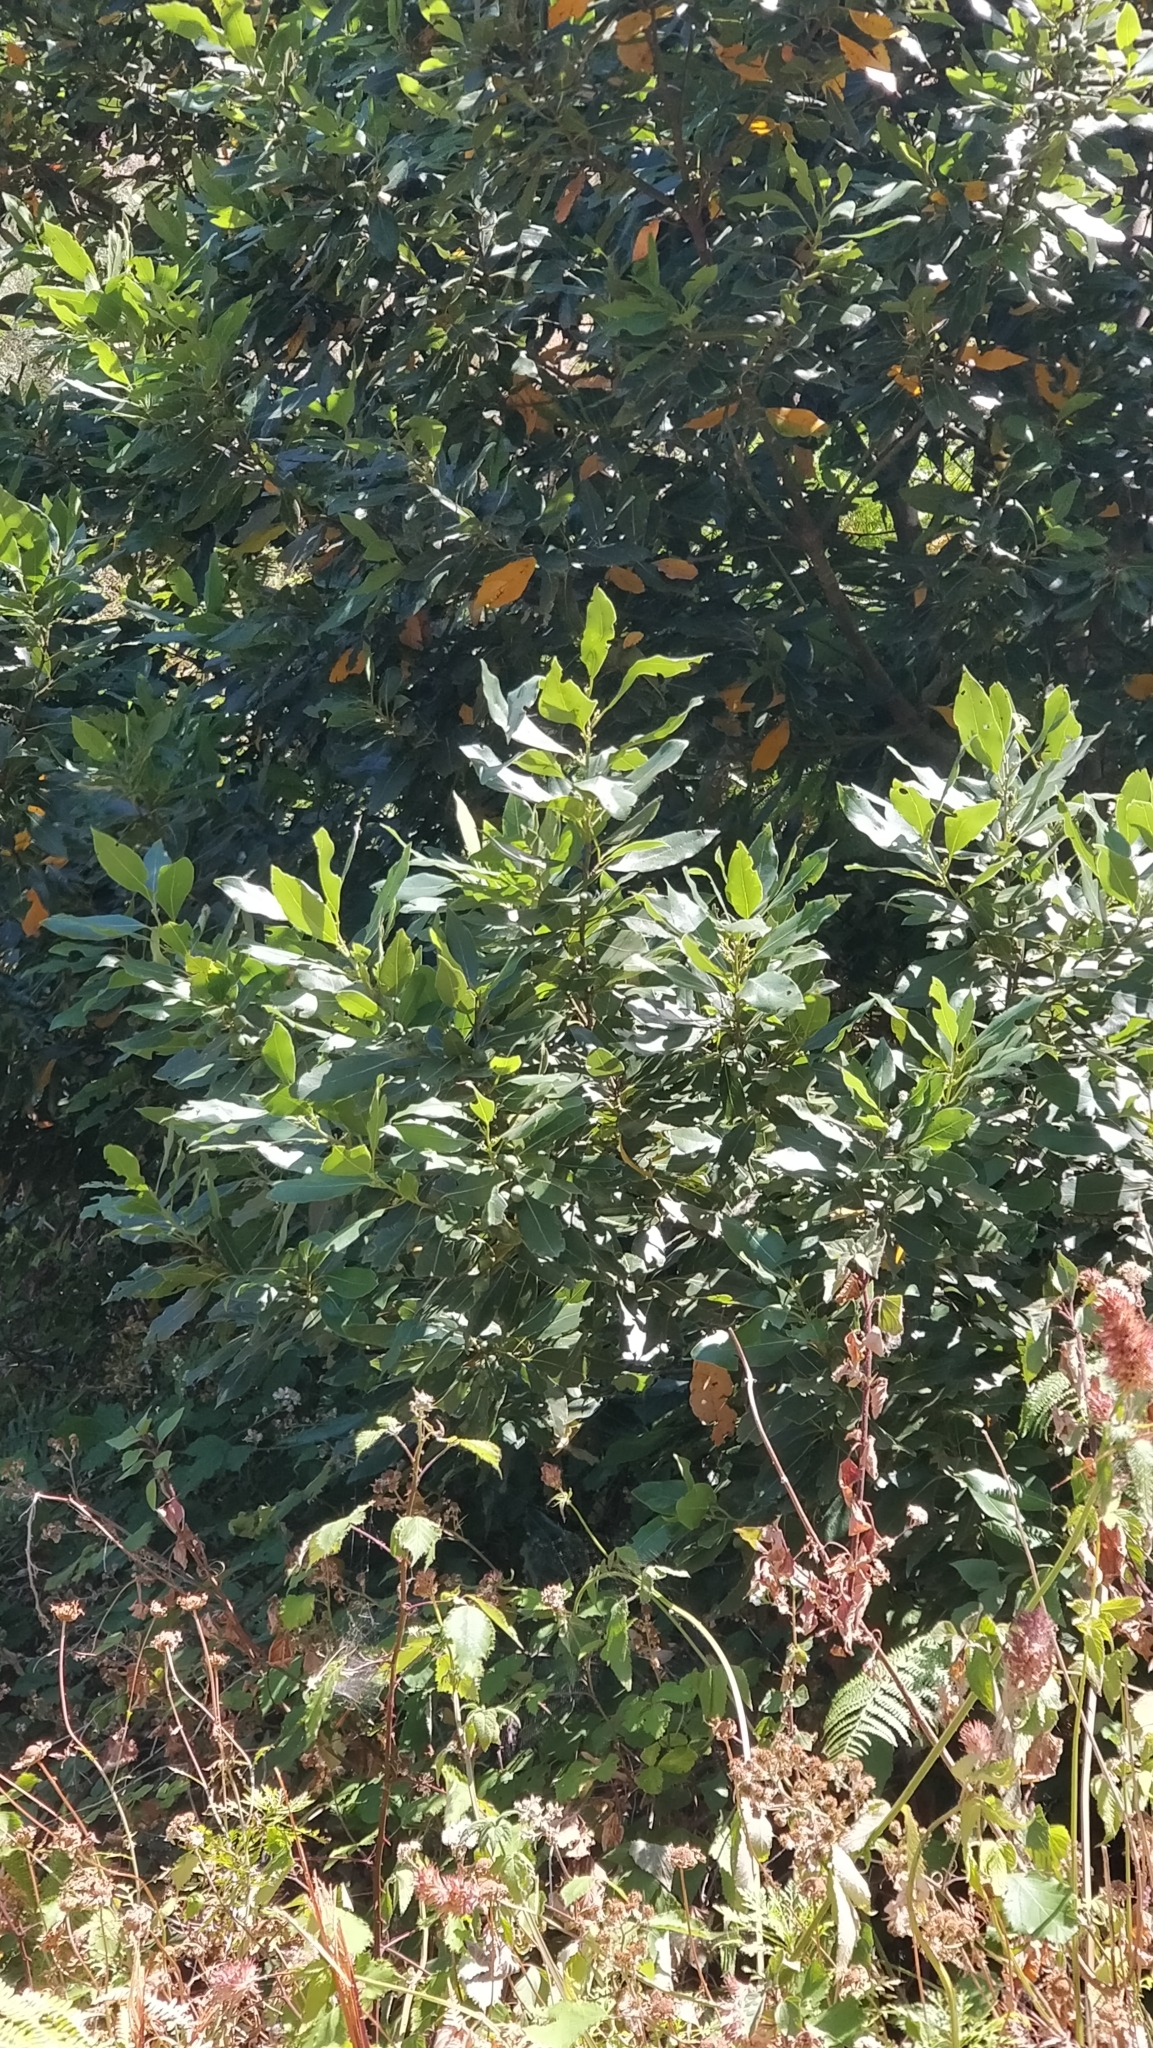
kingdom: Plantae
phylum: Tracheophyta
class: Magnoliopsida
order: Laurales
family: Lauraceae
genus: Laurus
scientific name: Laurus novocanariensis
